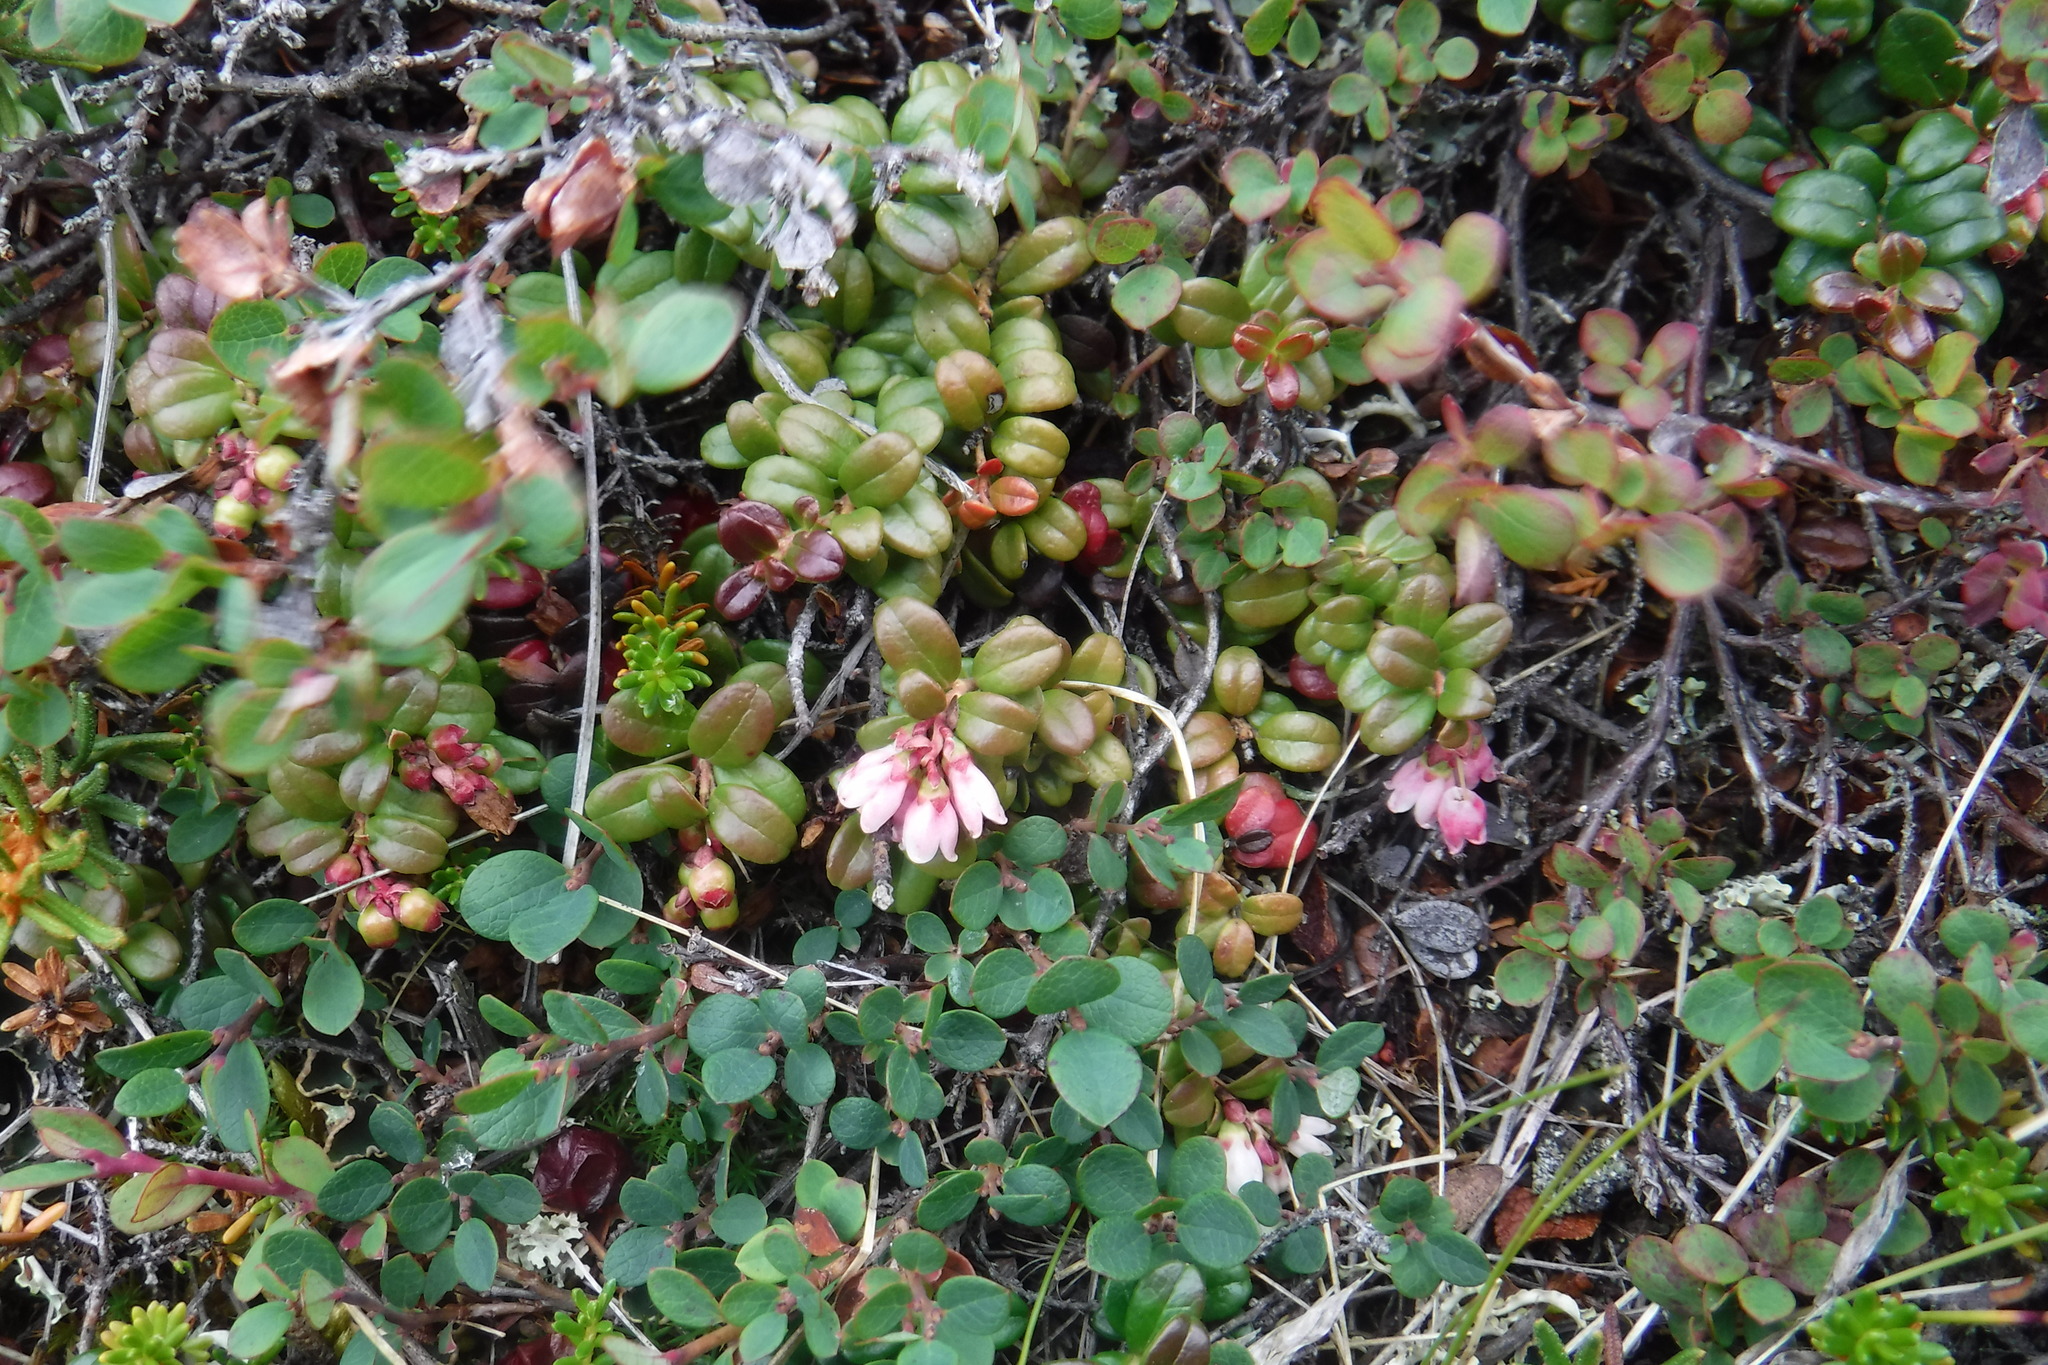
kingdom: Plantae
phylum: Tracheophyta
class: Magnoliopsida
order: Ericales
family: Ericaceae
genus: Vaccinium
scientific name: Vaccinium vitis-idaea
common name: Cowberry
